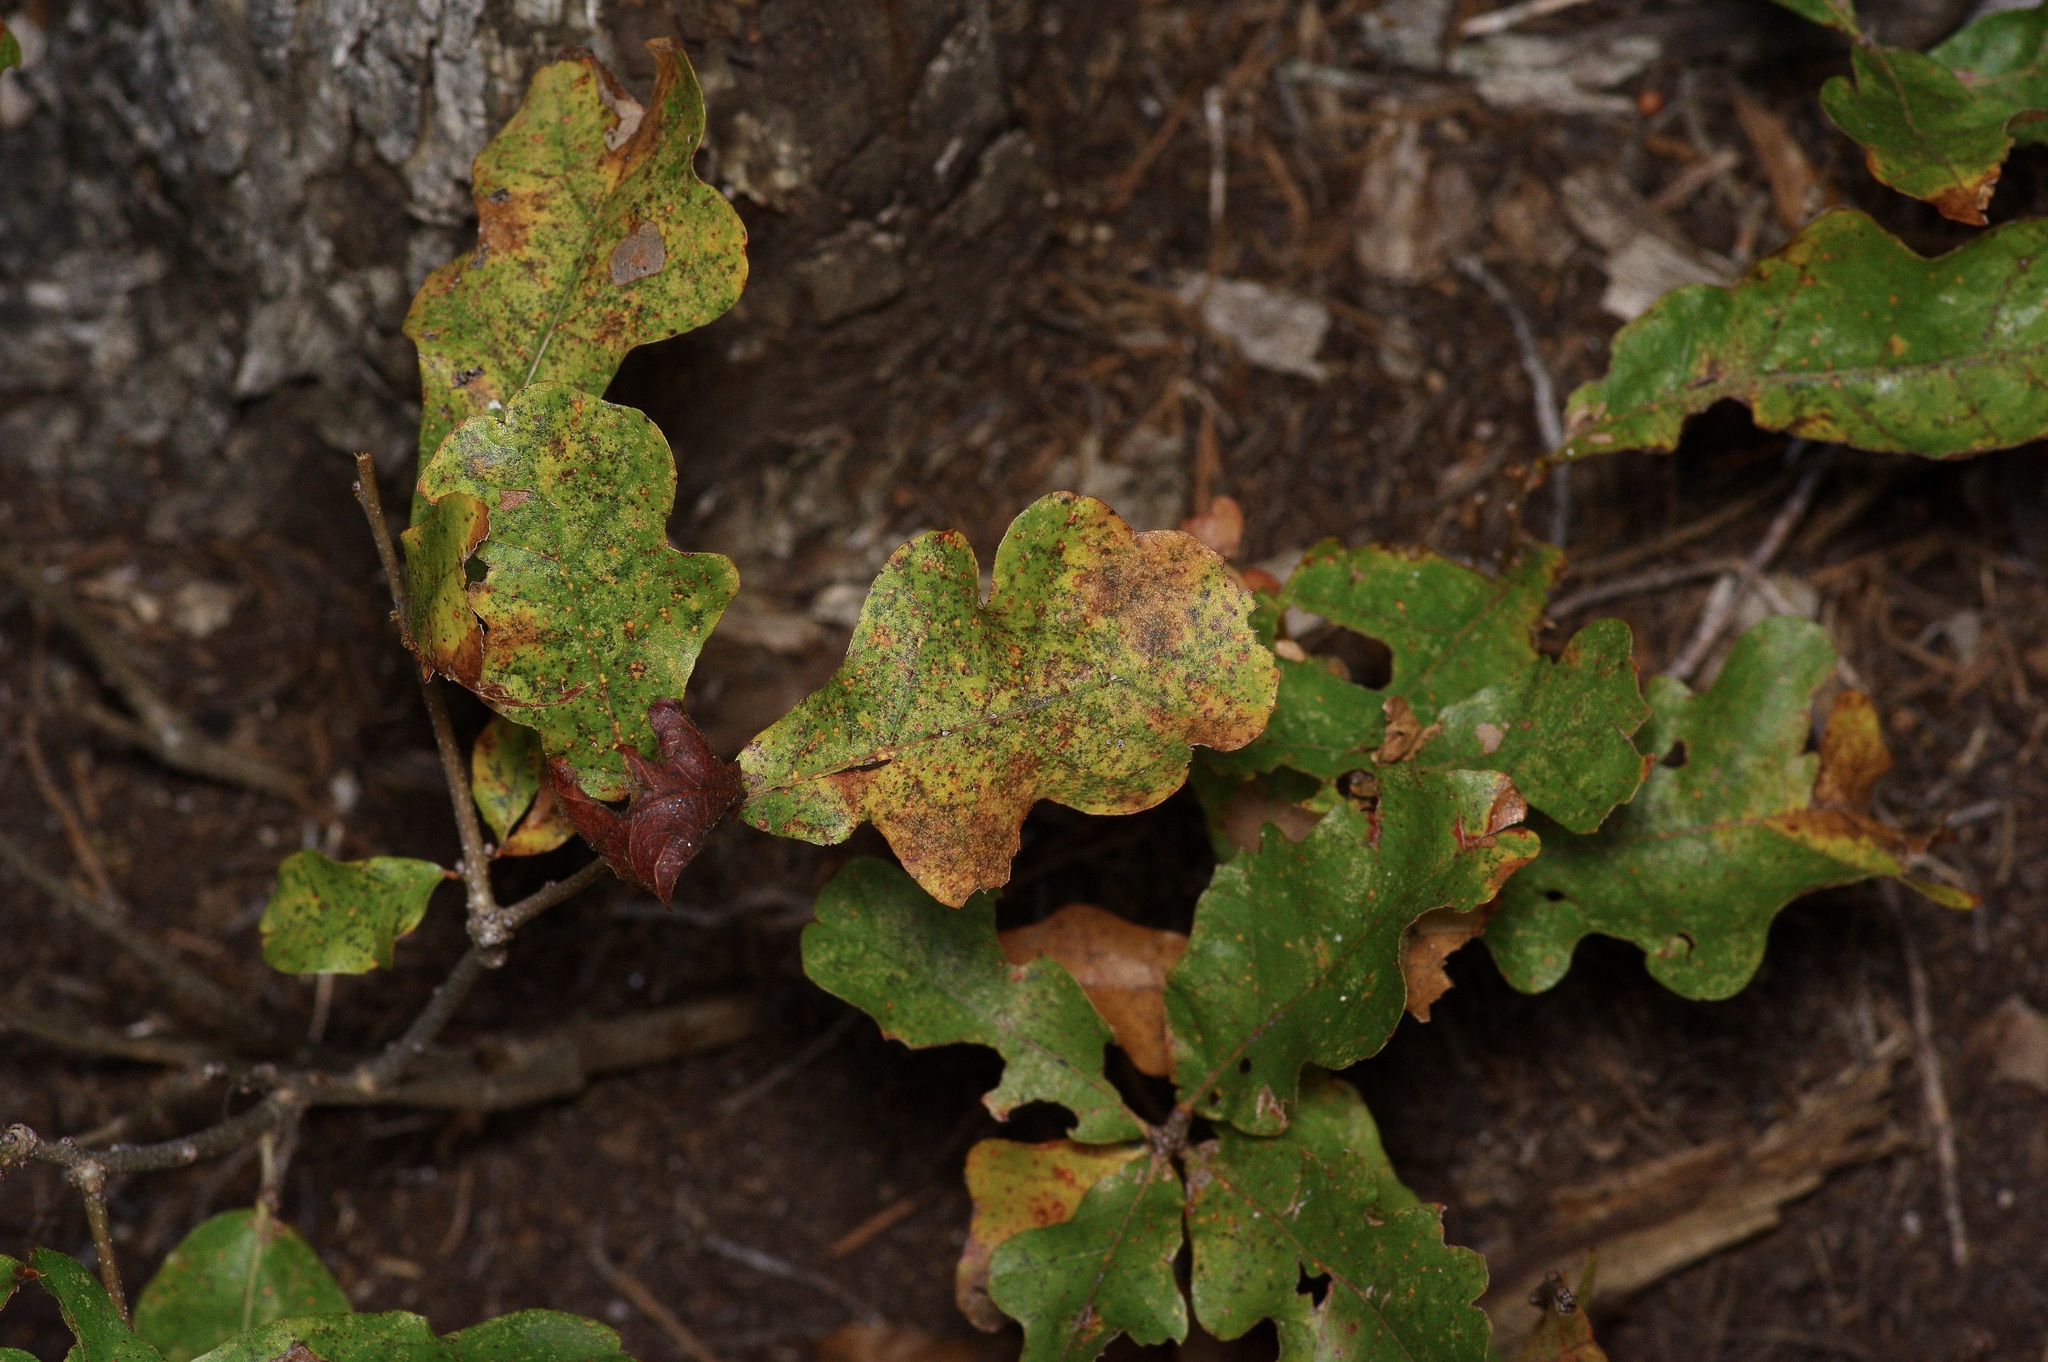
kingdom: Plantae
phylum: Tracheophyta
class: Magnoliopsida
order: Fagales
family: Fagaceae
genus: Quercus
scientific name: Quercus sinuata
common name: Durand oak
